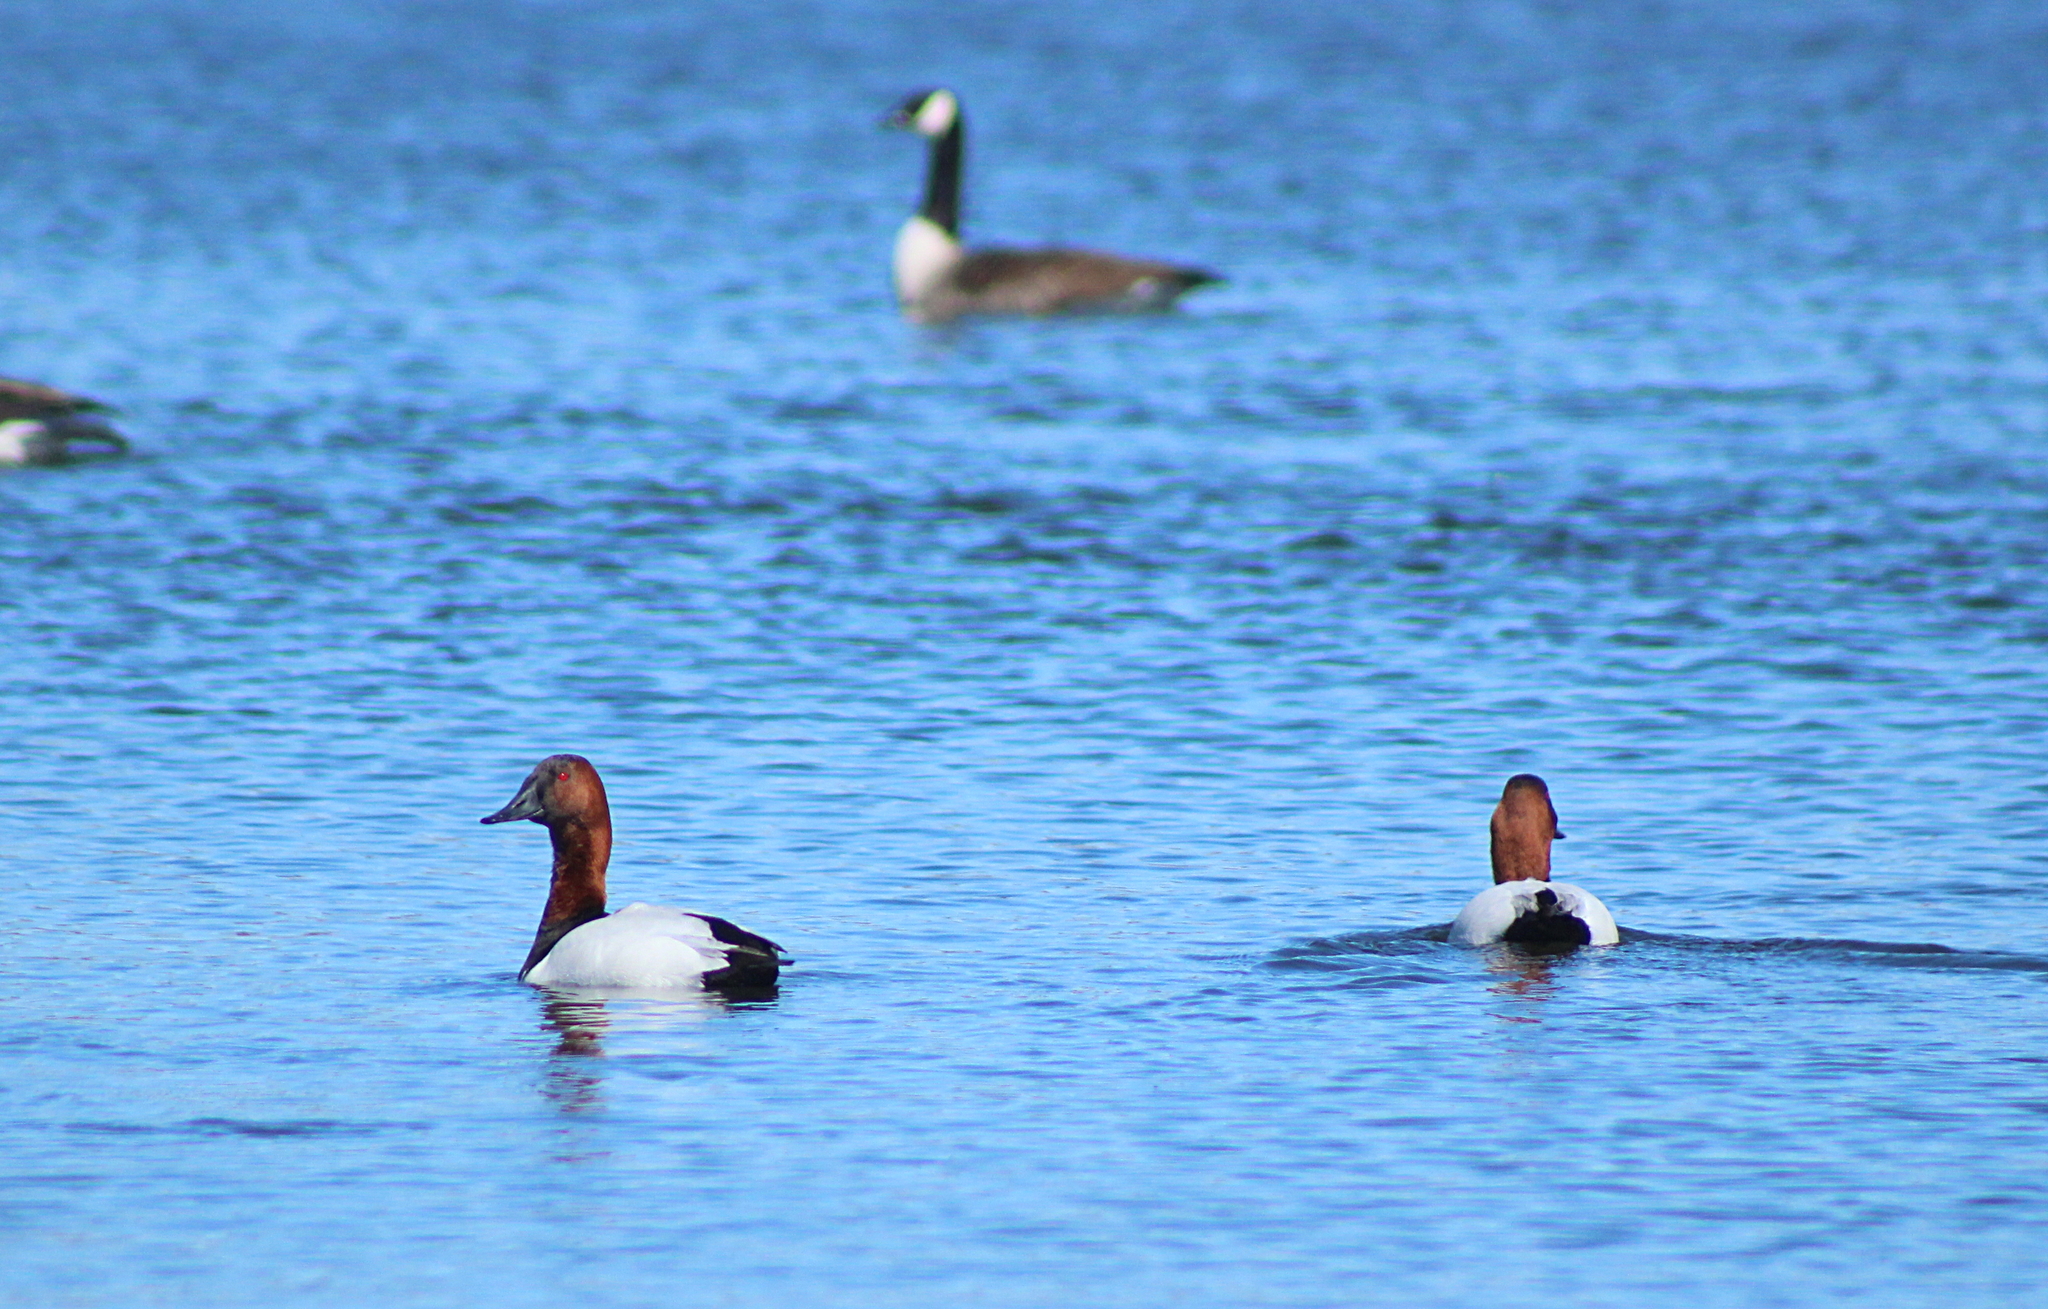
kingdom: Animalia
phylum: Chordata
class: Aves
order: Anseriformes
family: Anatidae
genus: Aythya
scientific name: Aythya valisineria
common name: Canvasback
